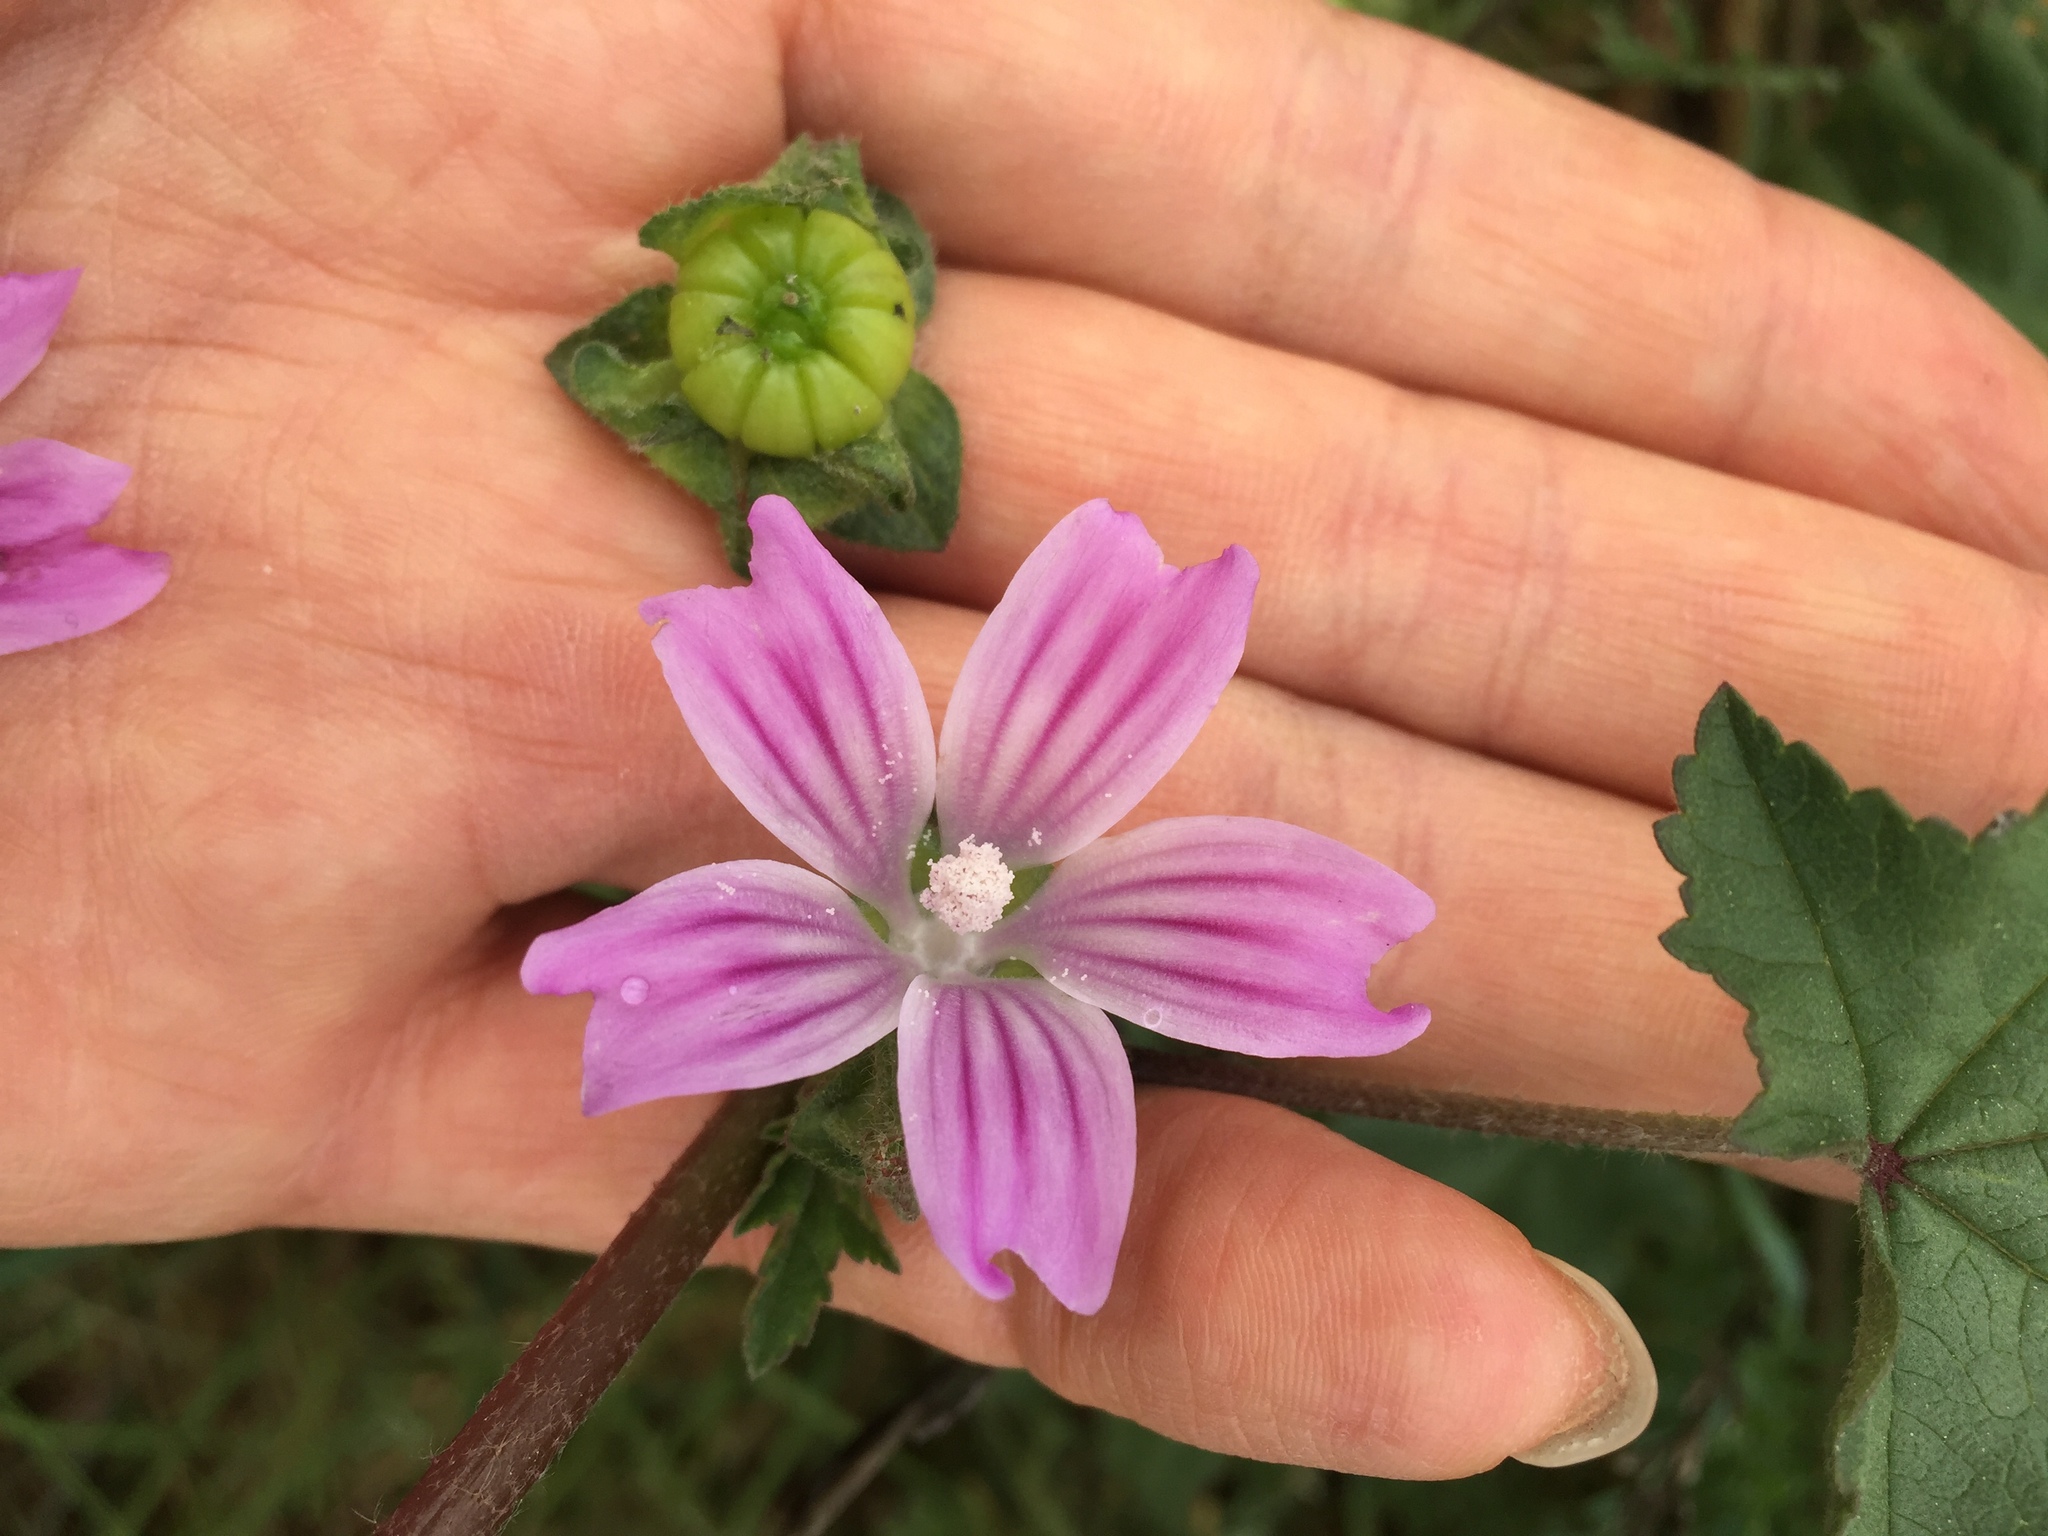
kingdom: Plantae
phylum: Tracheophyta
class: Magnoliopsida
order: Malvales
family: Malvaceae
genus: Malva
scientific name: Malva multiflora
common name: Cheeseweed
